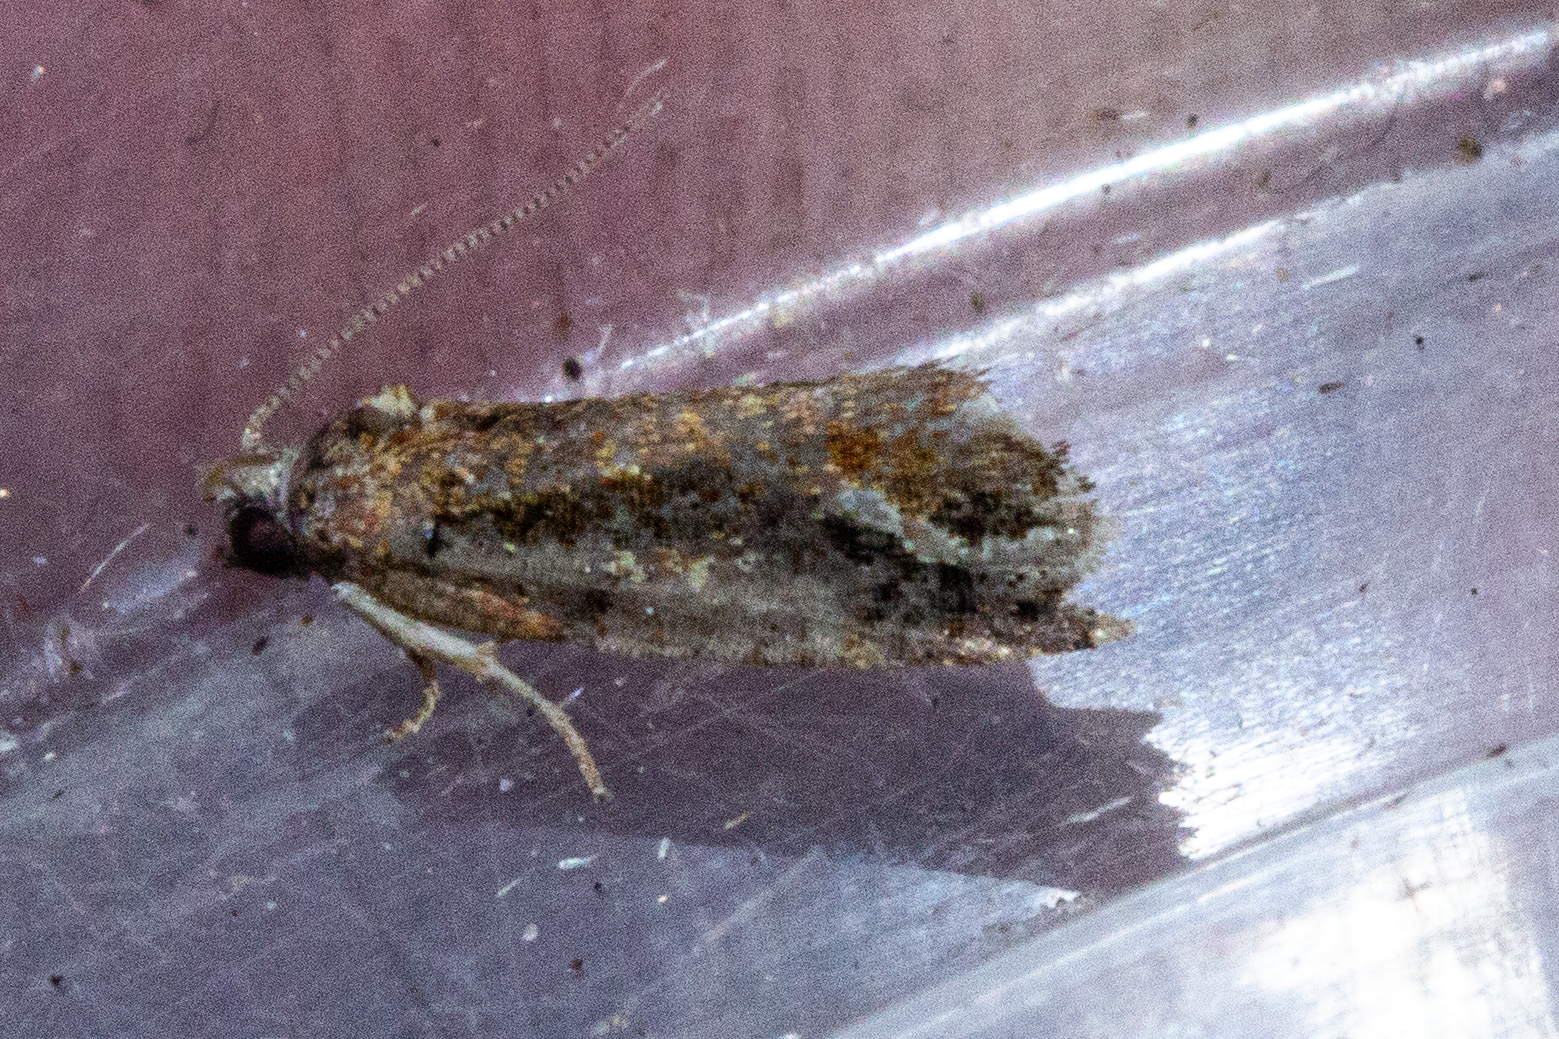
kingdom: Animalia
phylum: Arthropoda
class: Insecta
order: Lepidoptera
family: Tortricidae
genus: Strepsicrates
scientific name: Strepsicrates ejectana
